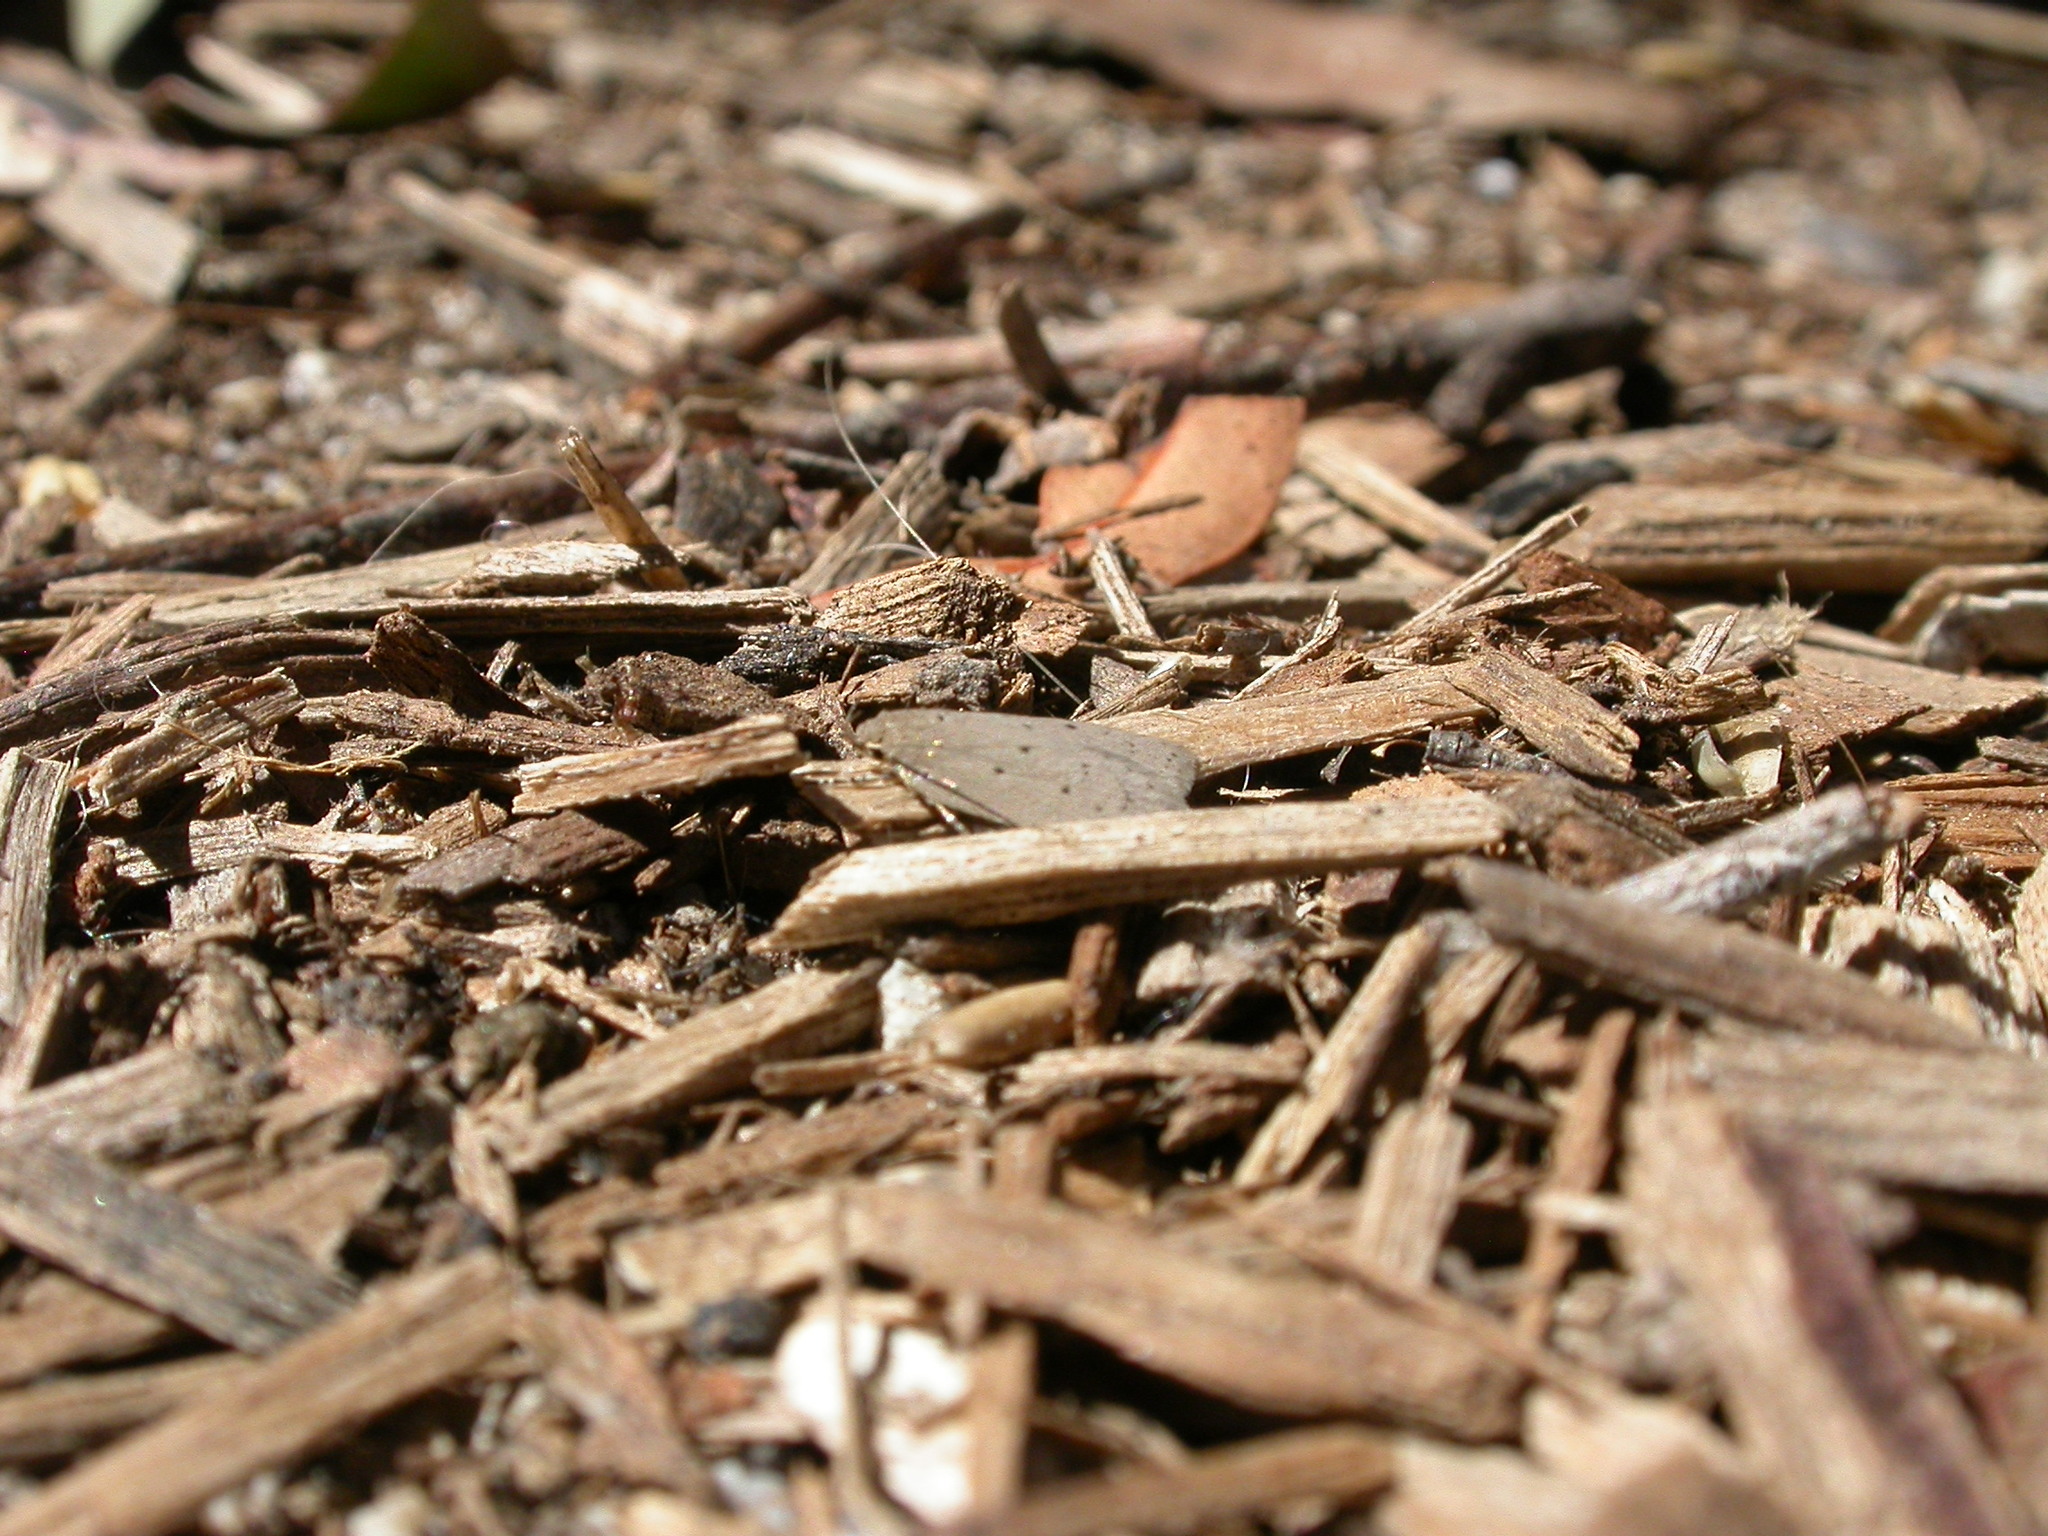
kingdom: Animalia
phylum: Arthropoda
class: Insecta
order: Lepidoptera
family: Oecophoridae
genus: Ironopolia
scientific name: Ironopolia sobriella
